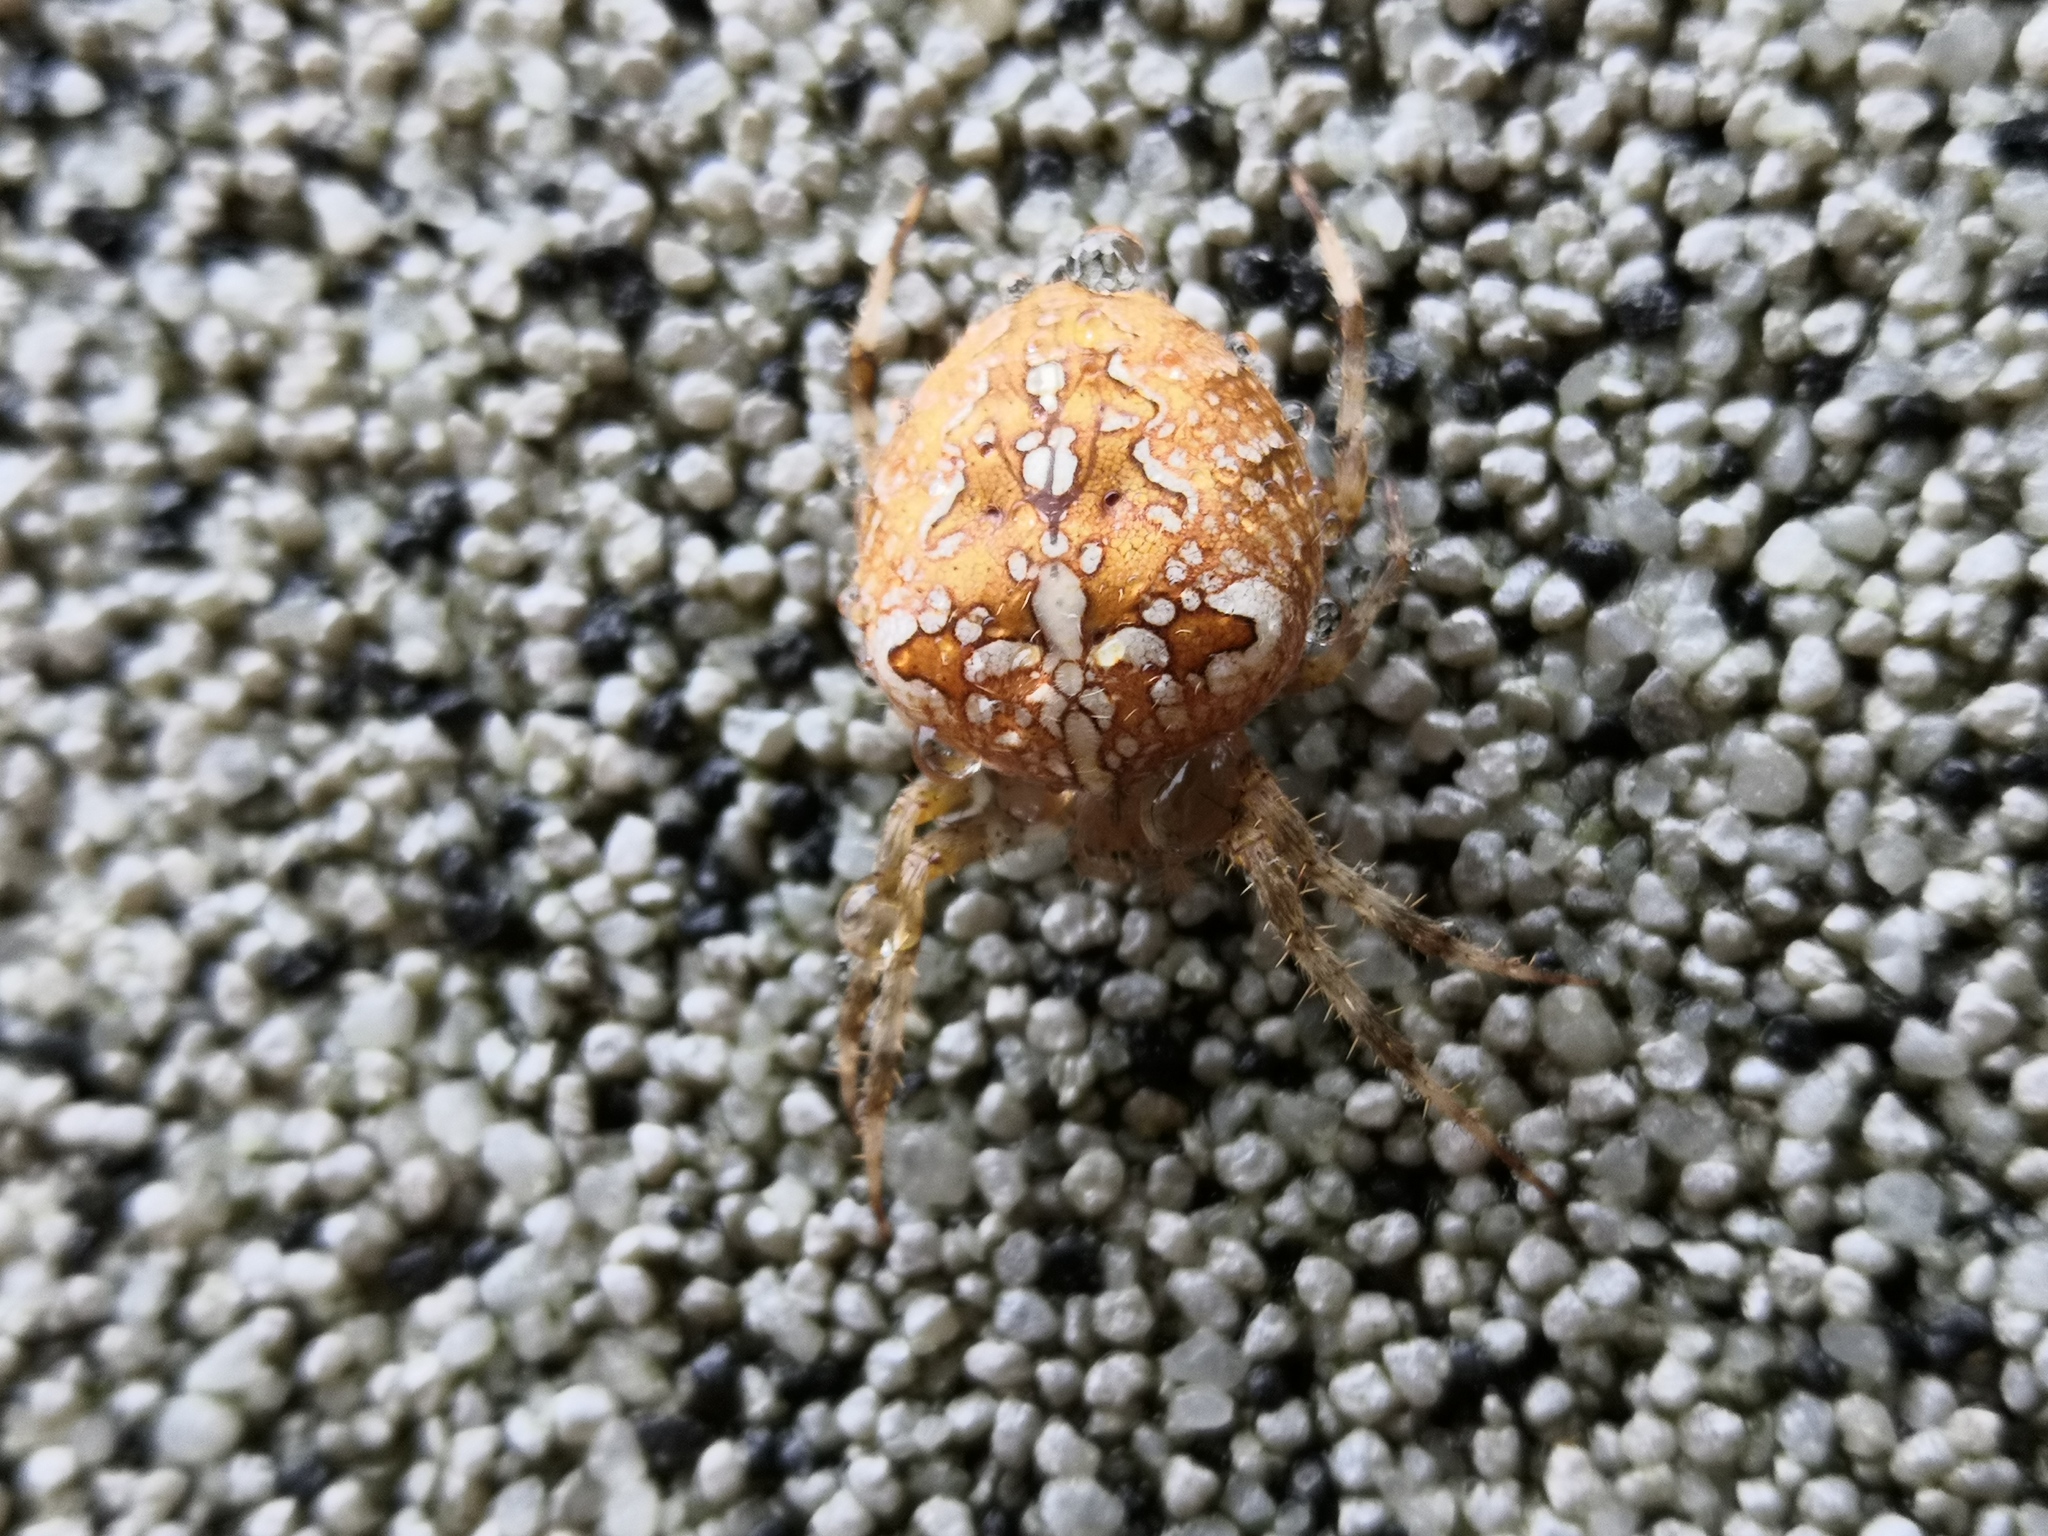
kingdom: Animalia
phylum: Arthropoda
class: Arachnida
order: Araneae
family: Araneidae
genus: Araneus
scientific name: Araneus diadematus
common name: Cross orbweaver
